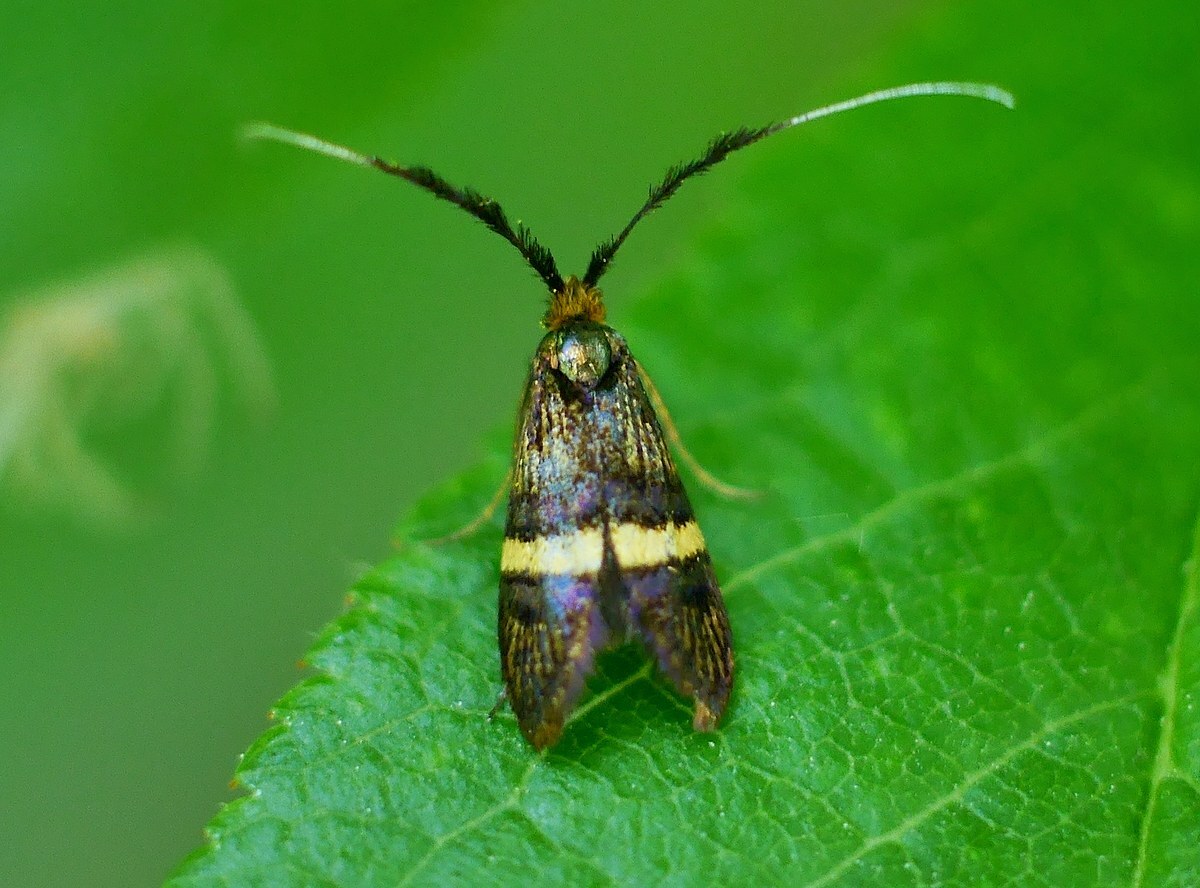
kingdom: Animalia
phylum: Arthropoda
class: Insecta
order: Lepidoptera
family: Adelidae
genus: Adela
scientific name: Adela croesella
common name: Small barred long-horn
